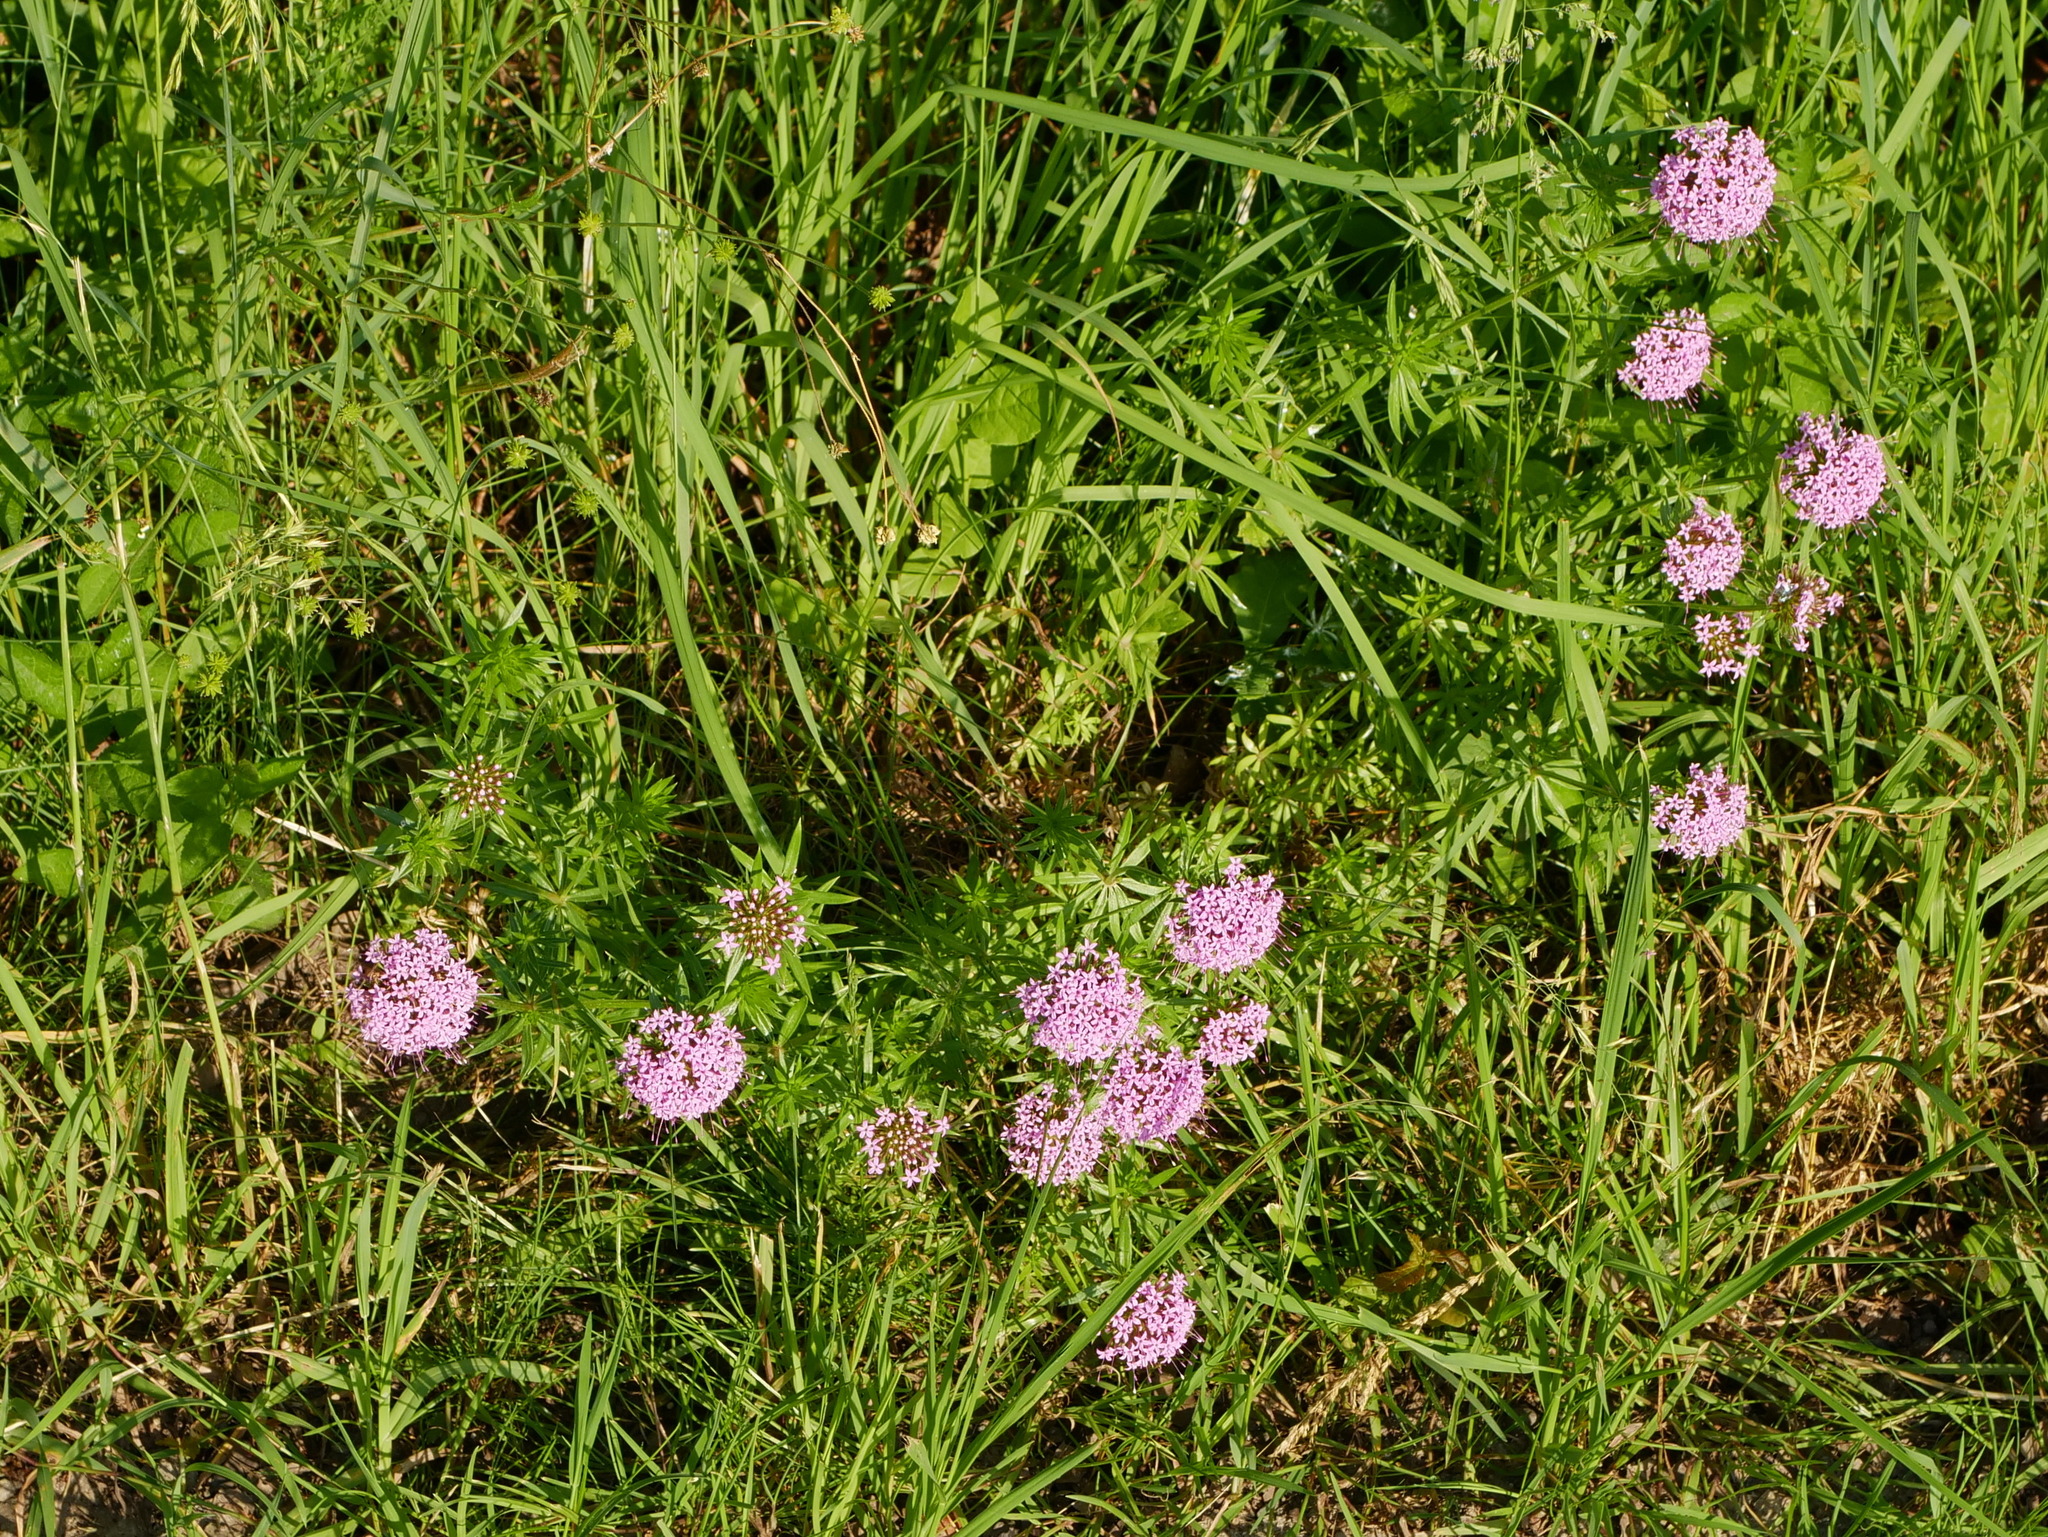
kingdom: Plantae
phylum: Tracheophyta
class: Magnoliopsida
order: Gentianales
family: Rubiaceae
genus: Phuopsis
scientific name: Phuopsis stylosa
